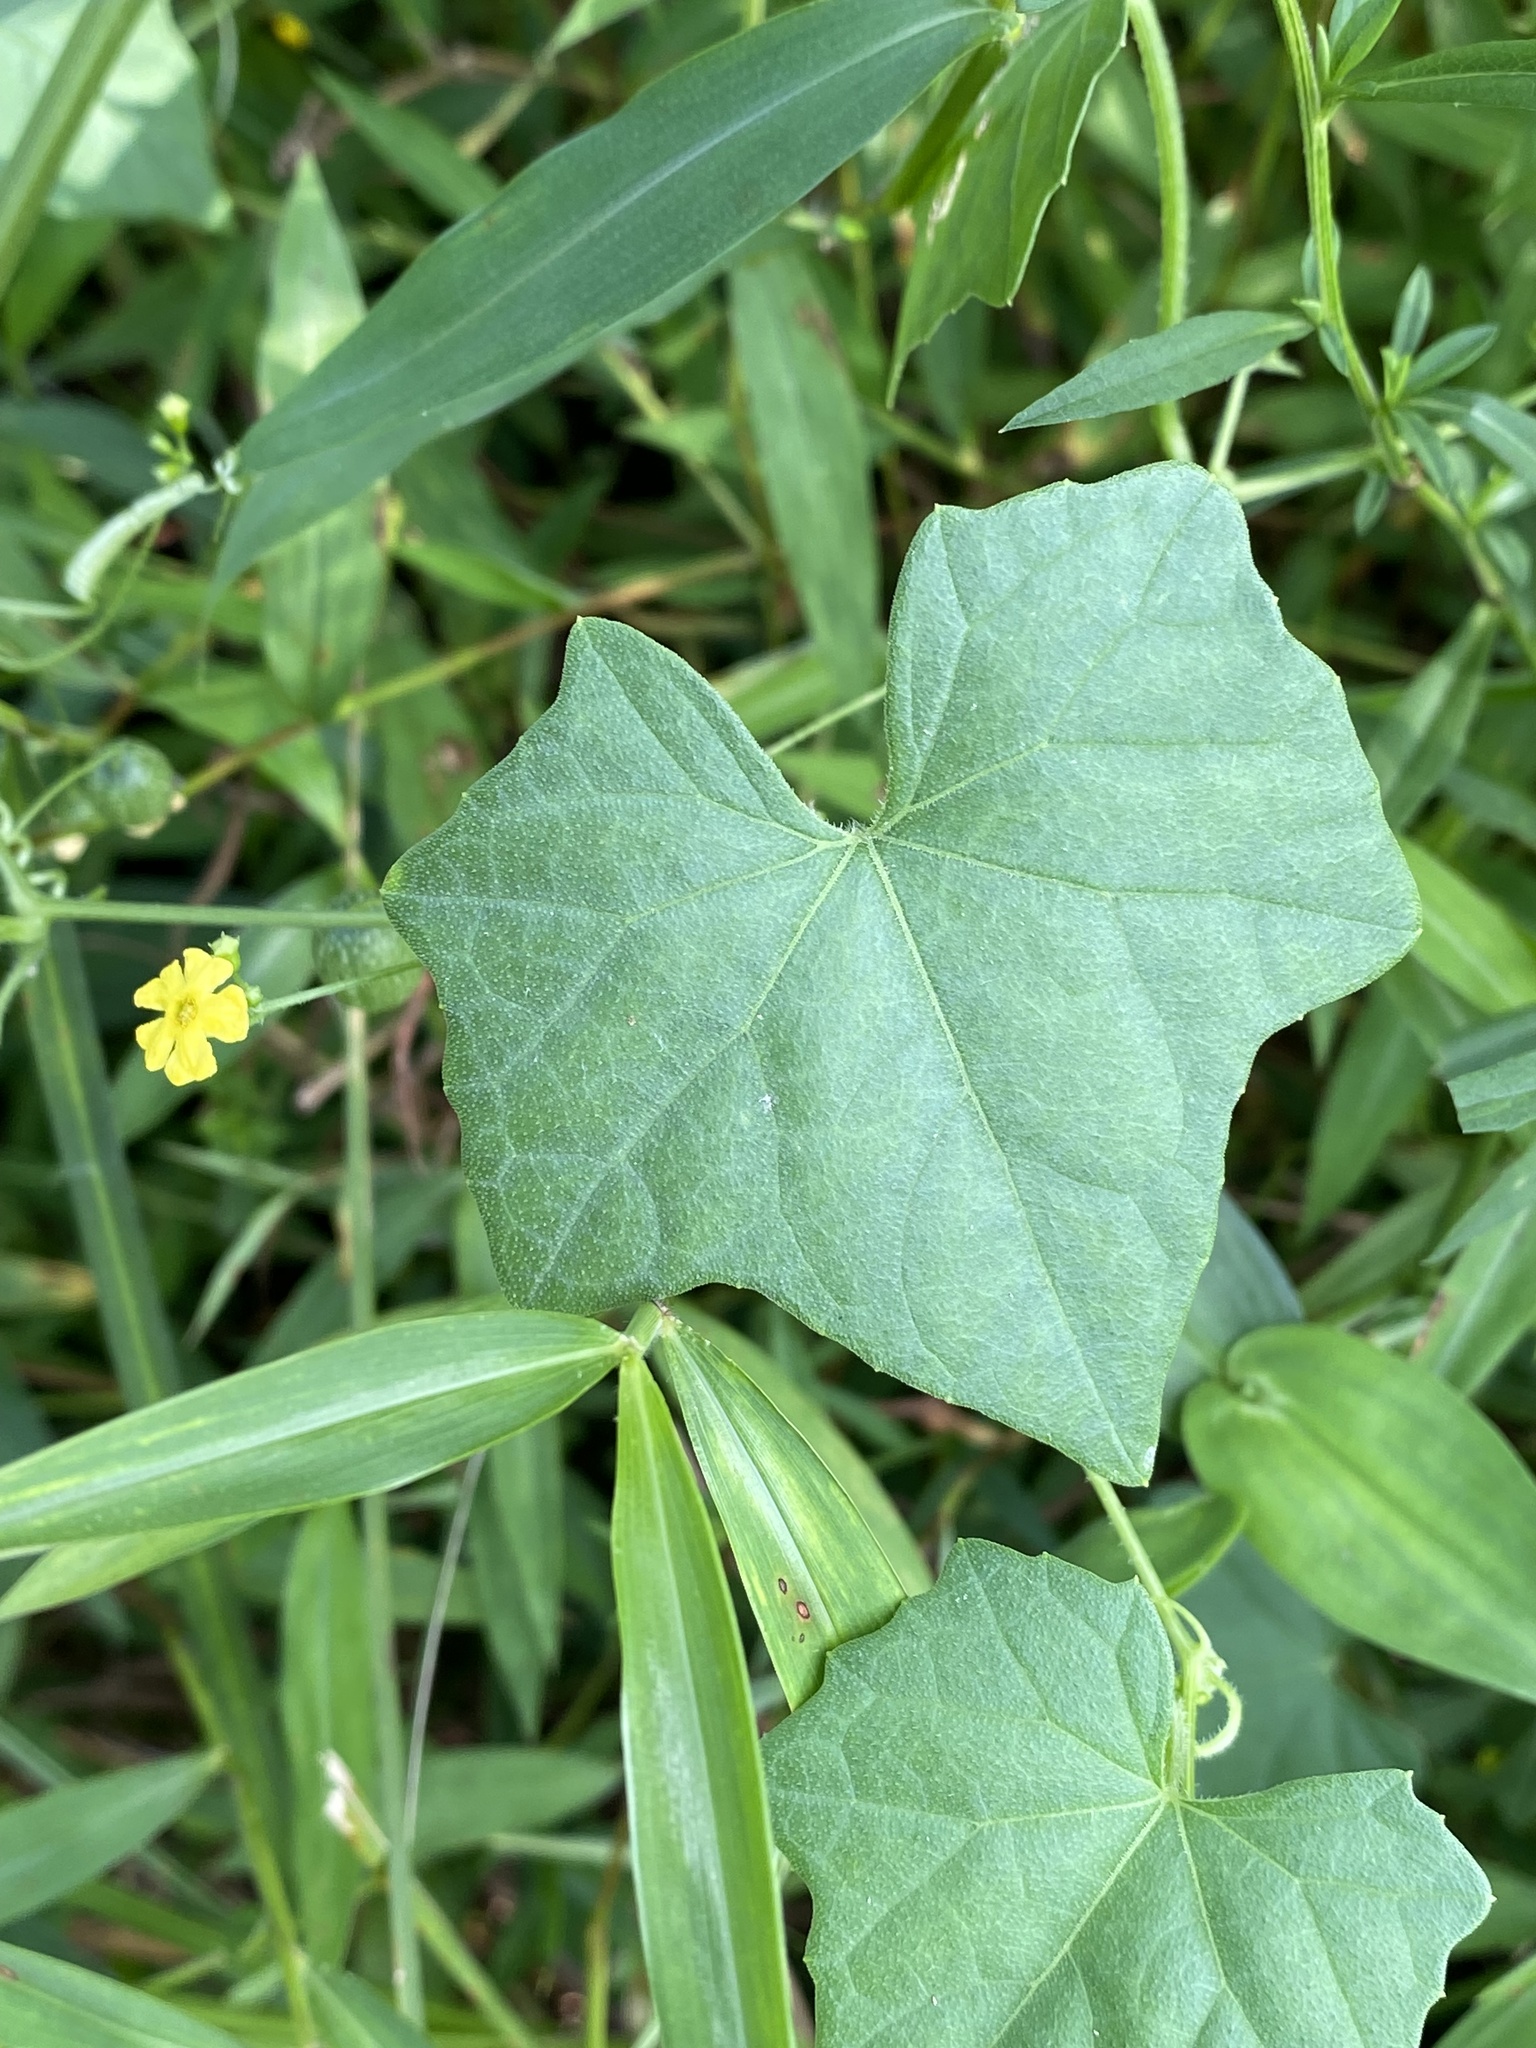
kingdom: Plantae
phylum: Tracheophyta
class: Magnoliopsida
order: Cucurbitales
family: Cucurbitaceae
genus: Melothria
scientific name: Melothria pendula
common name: Creeping-cucumber
